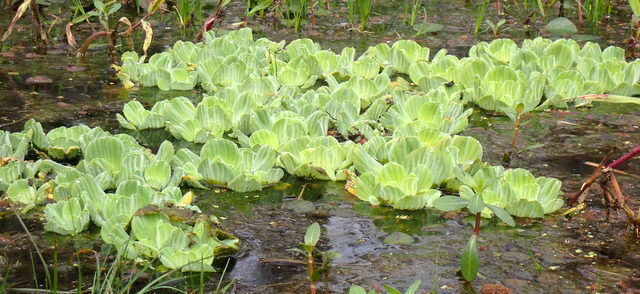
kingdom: Plantae
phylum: Tracheophyta
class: Liliopsida
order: Alismatales
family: Araceae
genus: Pistia
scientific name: Pistia stratiotes
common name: Water lettuce
